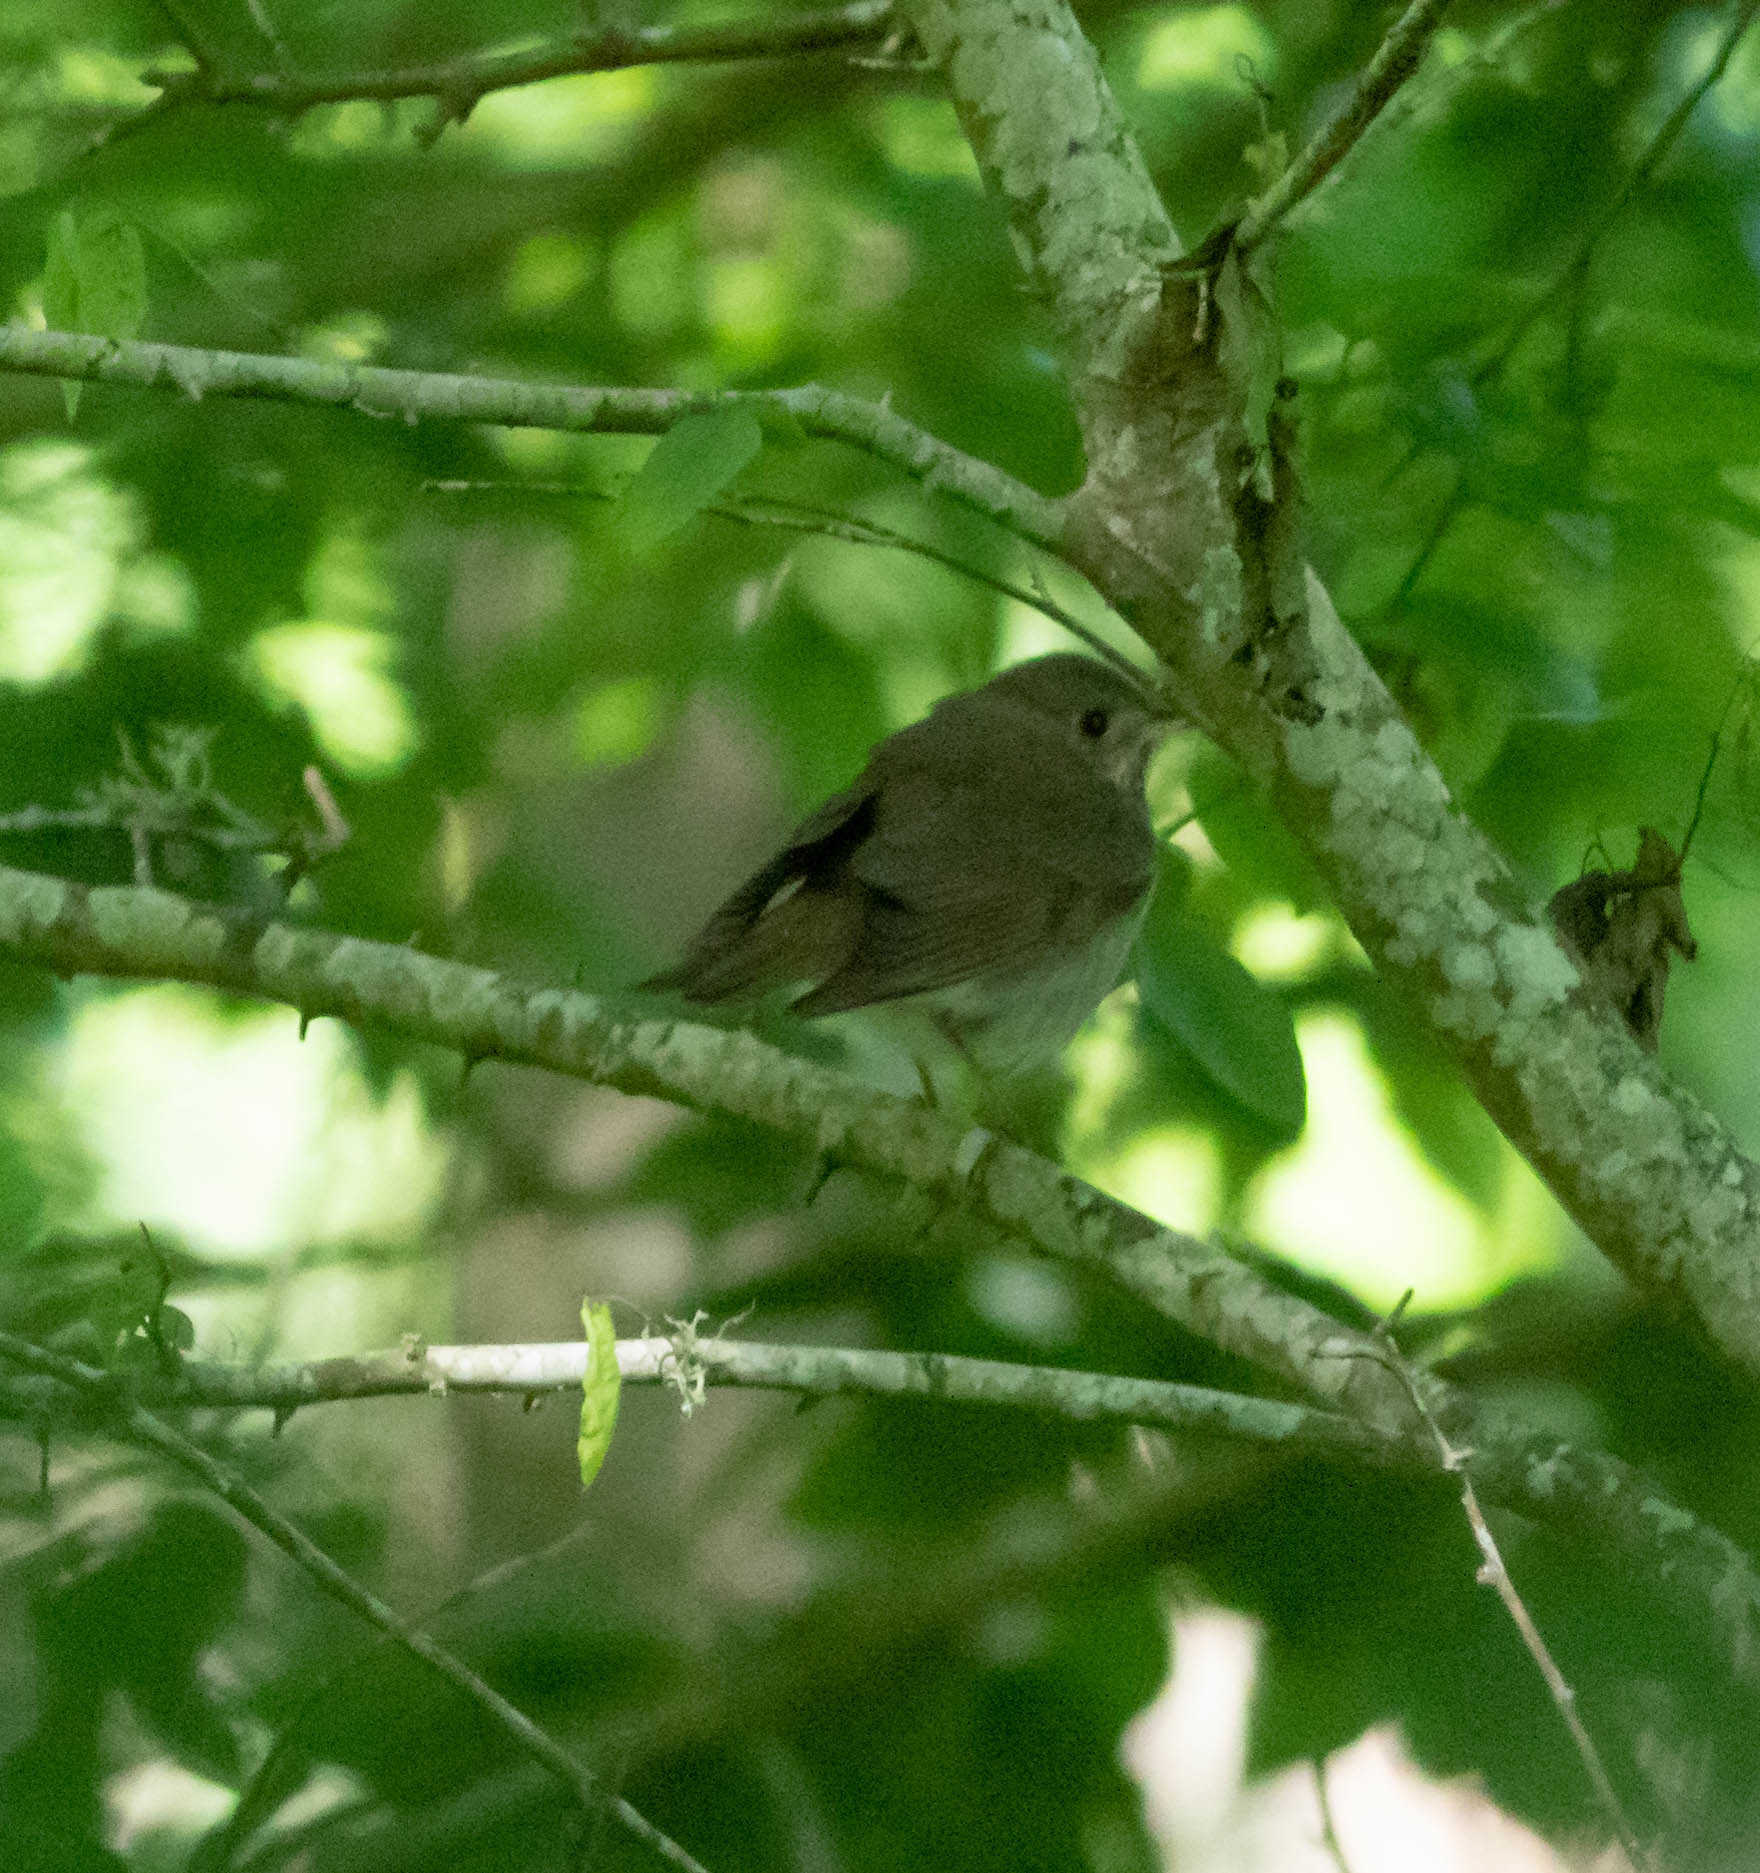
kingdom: Animalia
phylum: Chordata
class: Aves
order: Passeriformes
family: Turdidae
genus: Catharus
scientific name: Catharus minimus
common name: Grey-cheeked thrush
